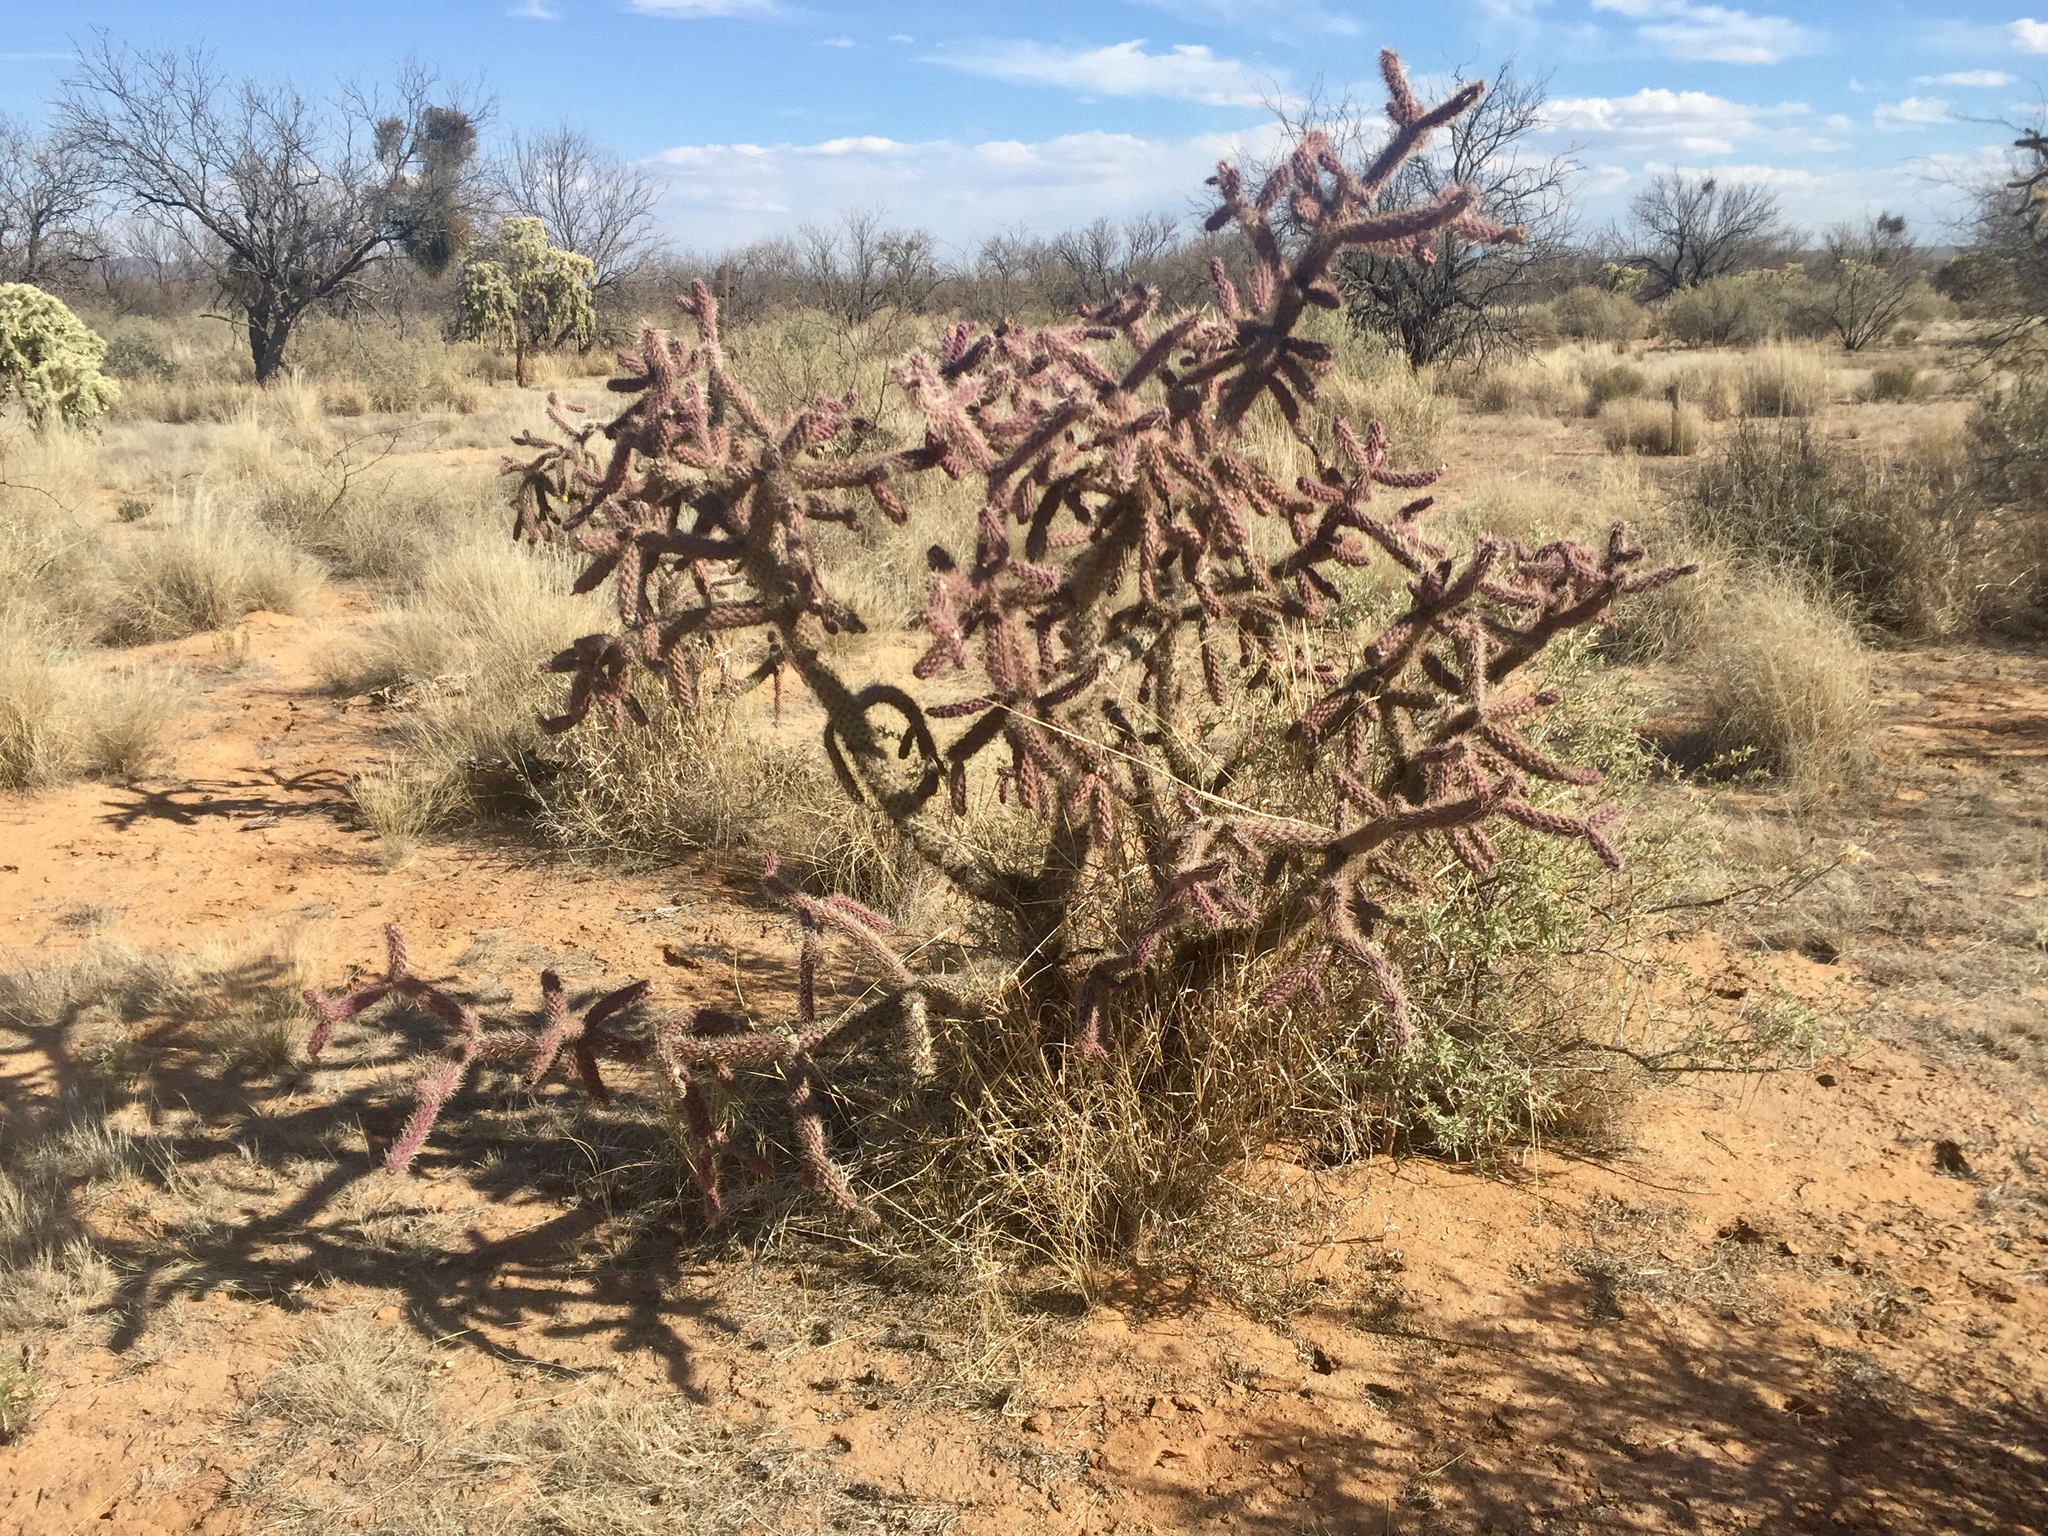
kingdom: Plantae
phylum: Tracheophyta
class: Magnoliopsida
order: Caryophyllales
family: Cactaceae
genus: Cylindropuntia
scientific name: Cylindropuntia thurberi
